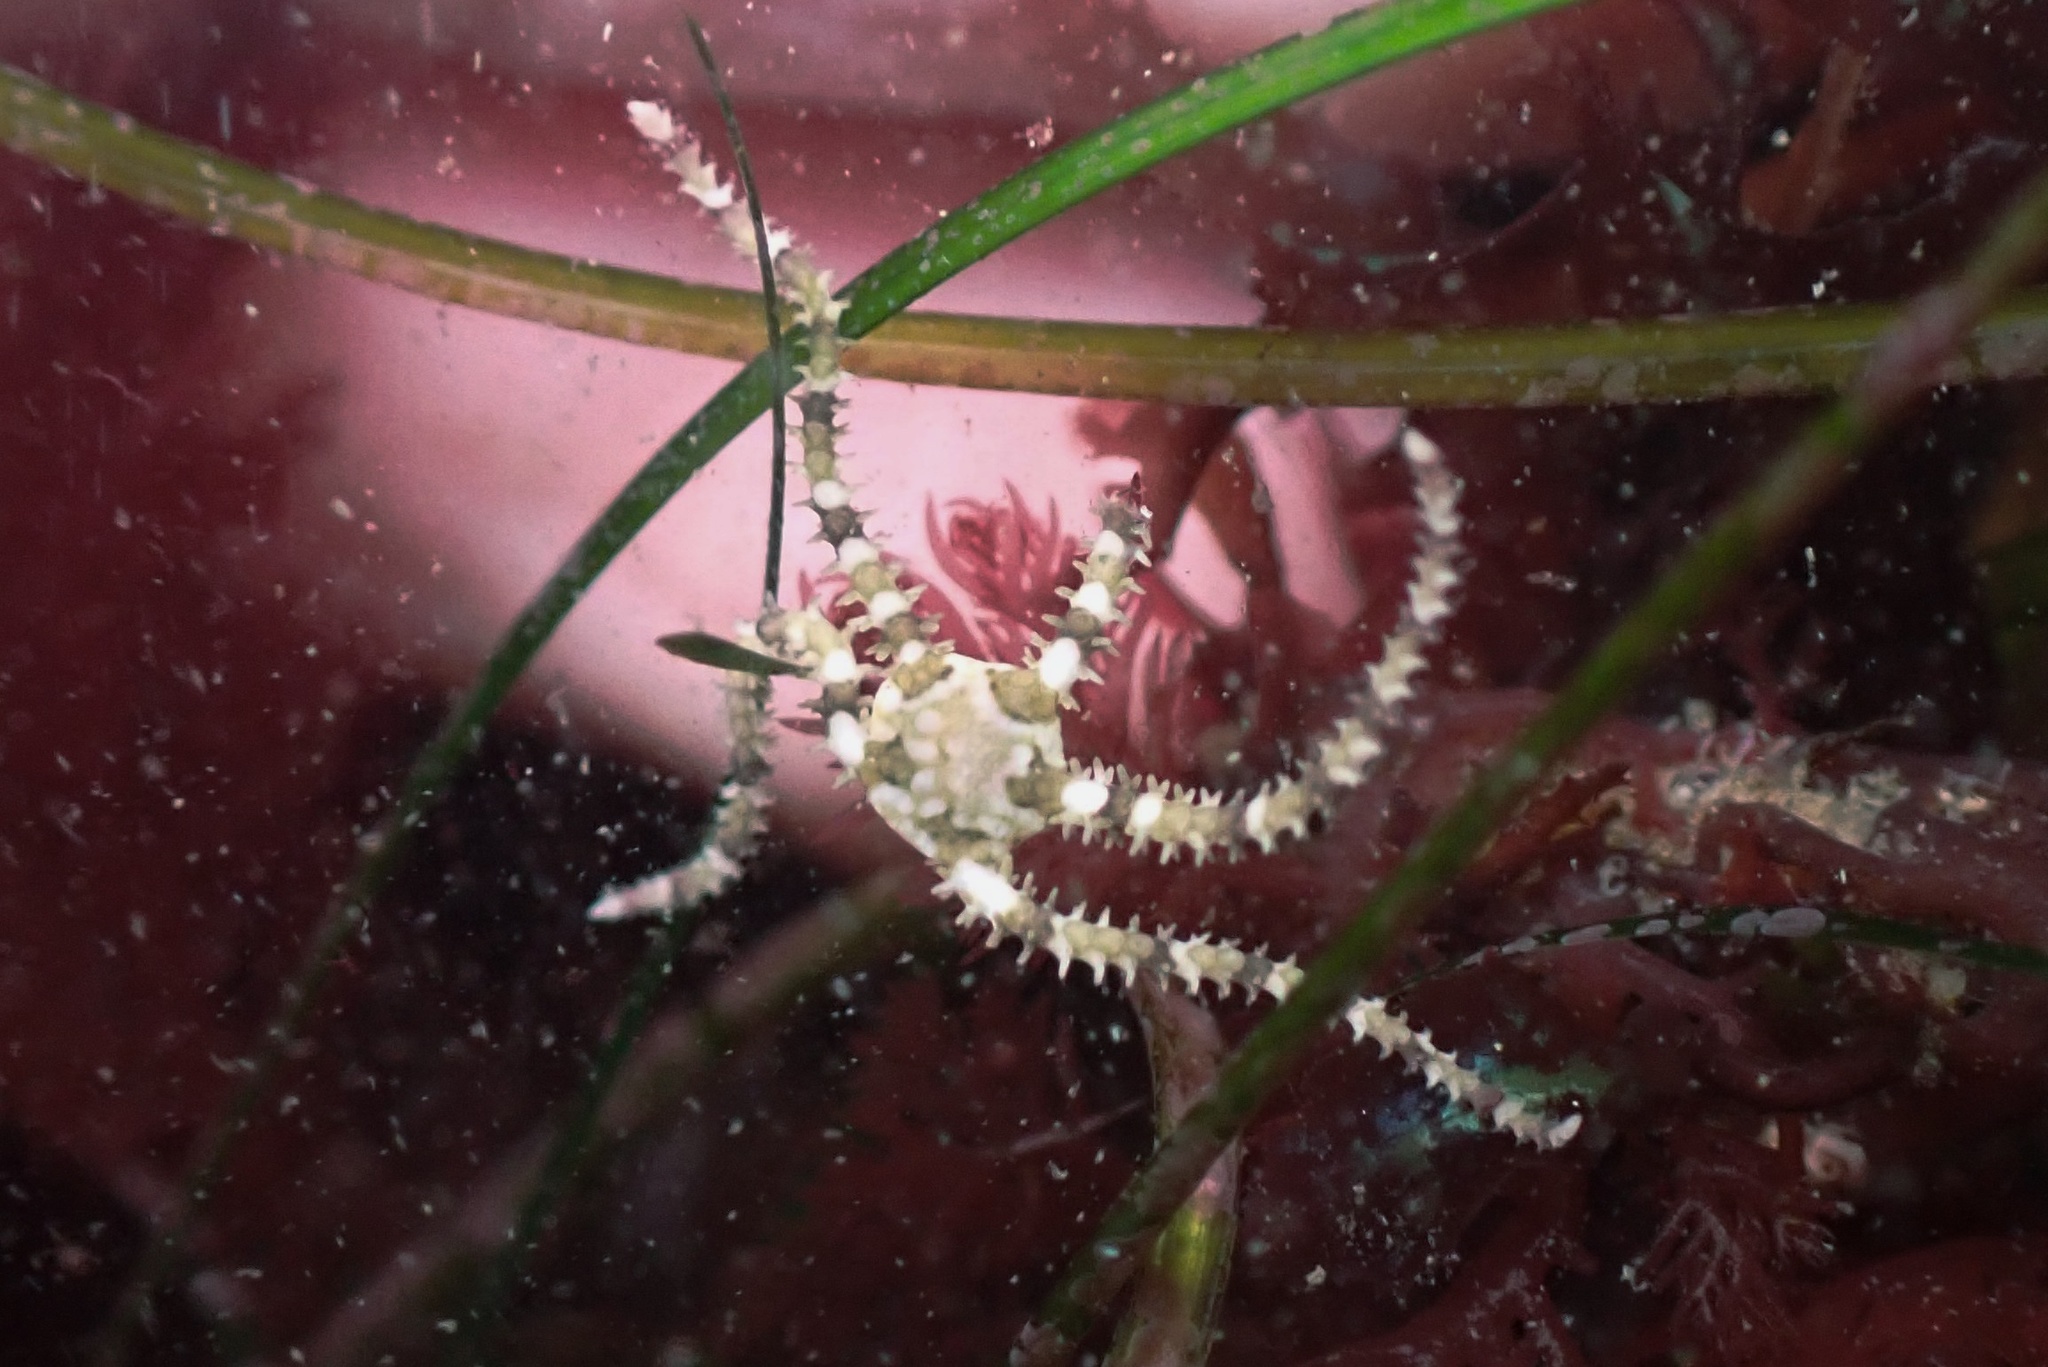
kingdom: Animalia
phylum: Echinodermata
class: Ophiuroidea
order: Amphilepidida
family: Ophionereididae
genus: Ophionereis
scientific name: Ophionereis diabloensis
